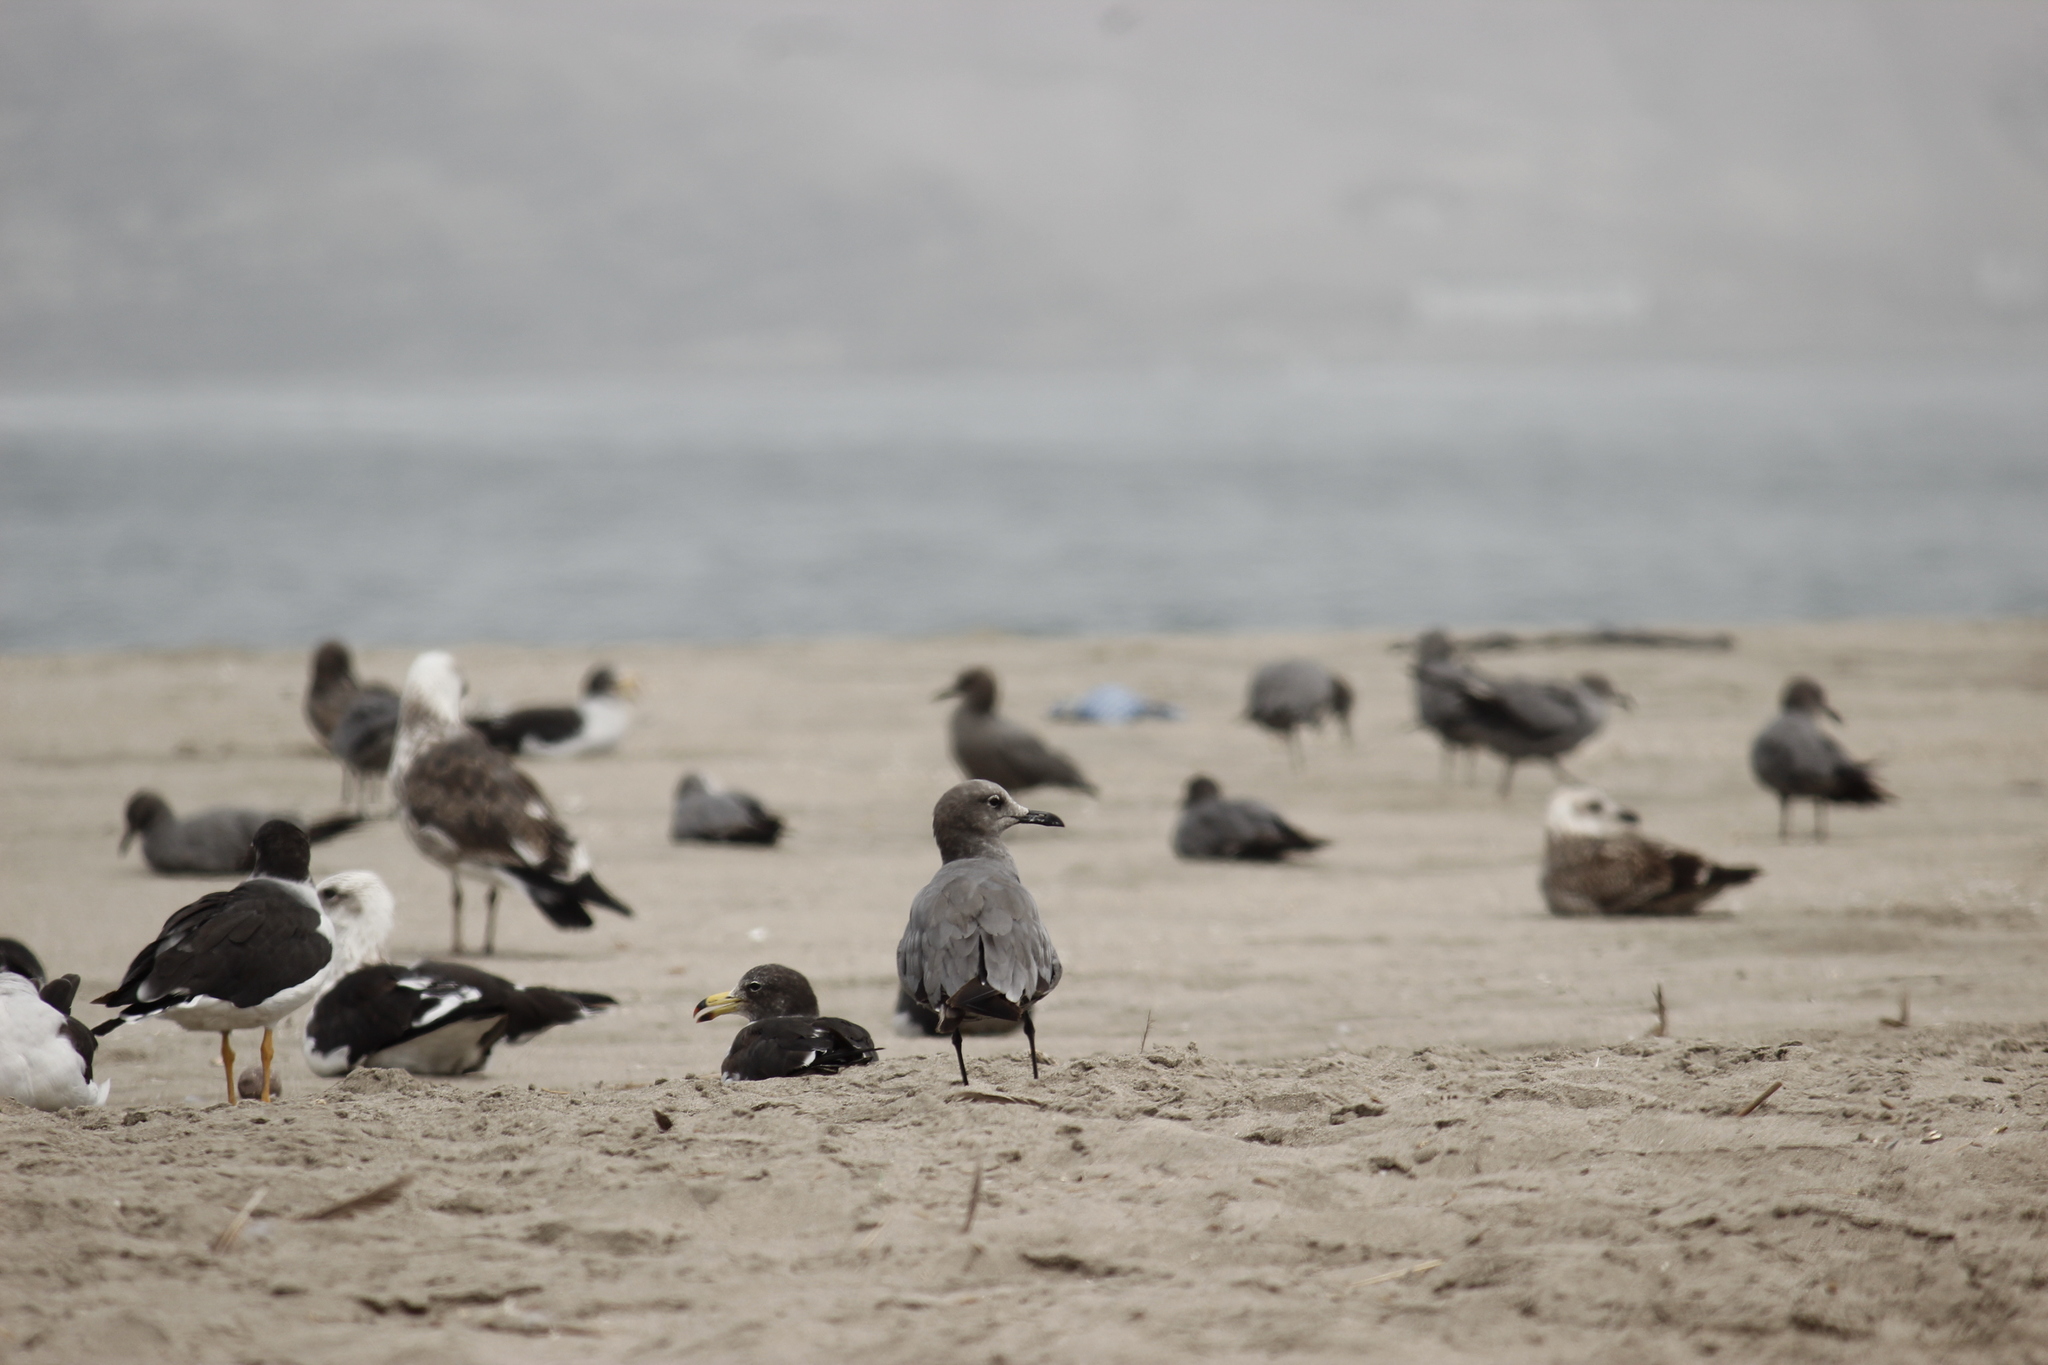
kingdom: Animalia
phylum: Chordata
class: Aves
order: Charadriiformes
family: Laridae
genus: Leucophaeus
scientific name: Leucophaeus modestus
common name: Gray gull
